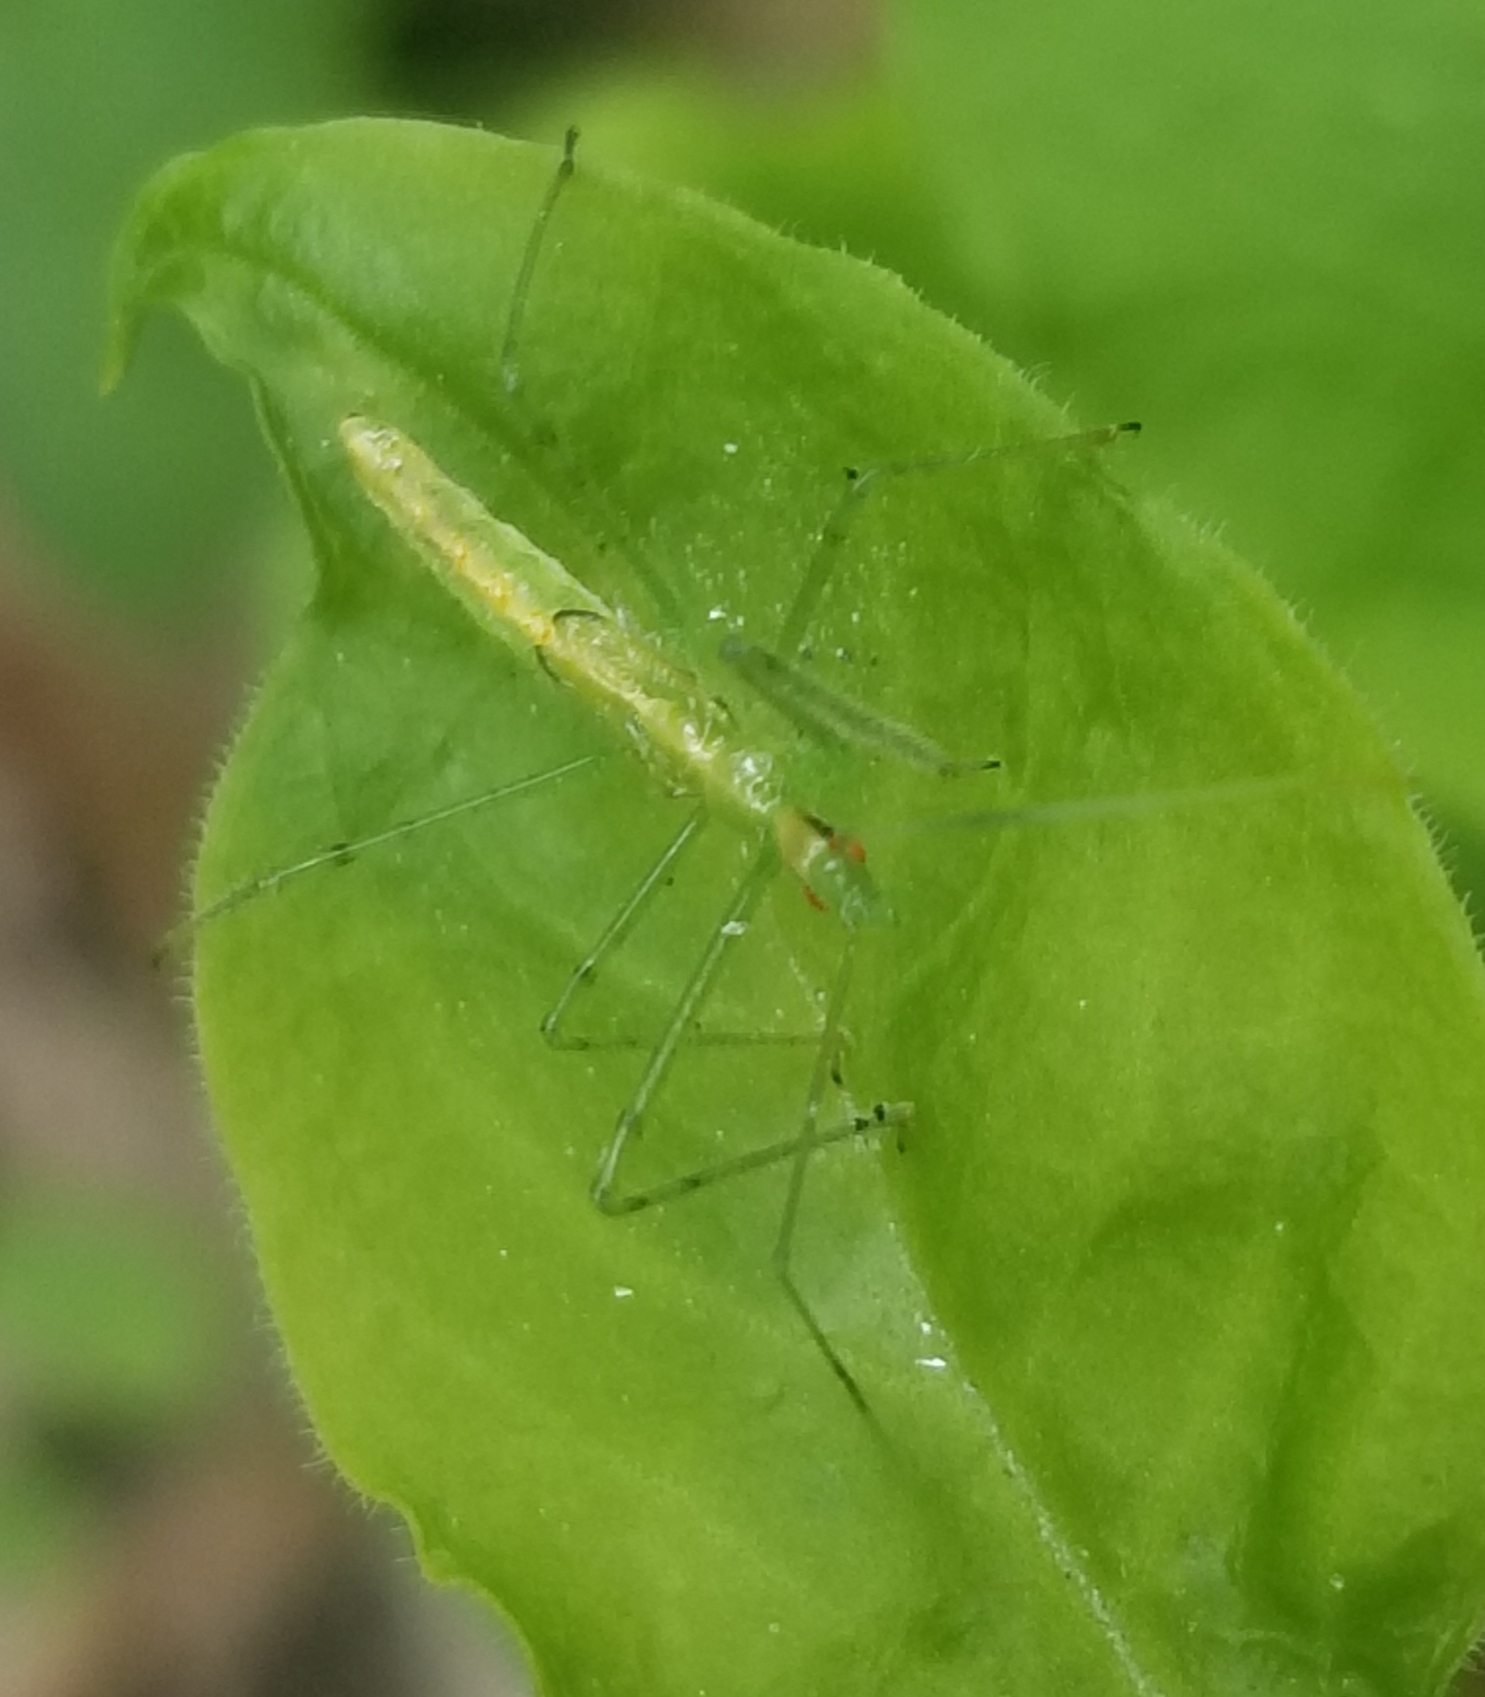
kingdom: Animalia
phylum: Arthropoda
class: Insecta
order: Hemiptera
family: Reduviidae
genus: Zelus
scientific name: Zelus luridus
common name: Pale green assassin bug
